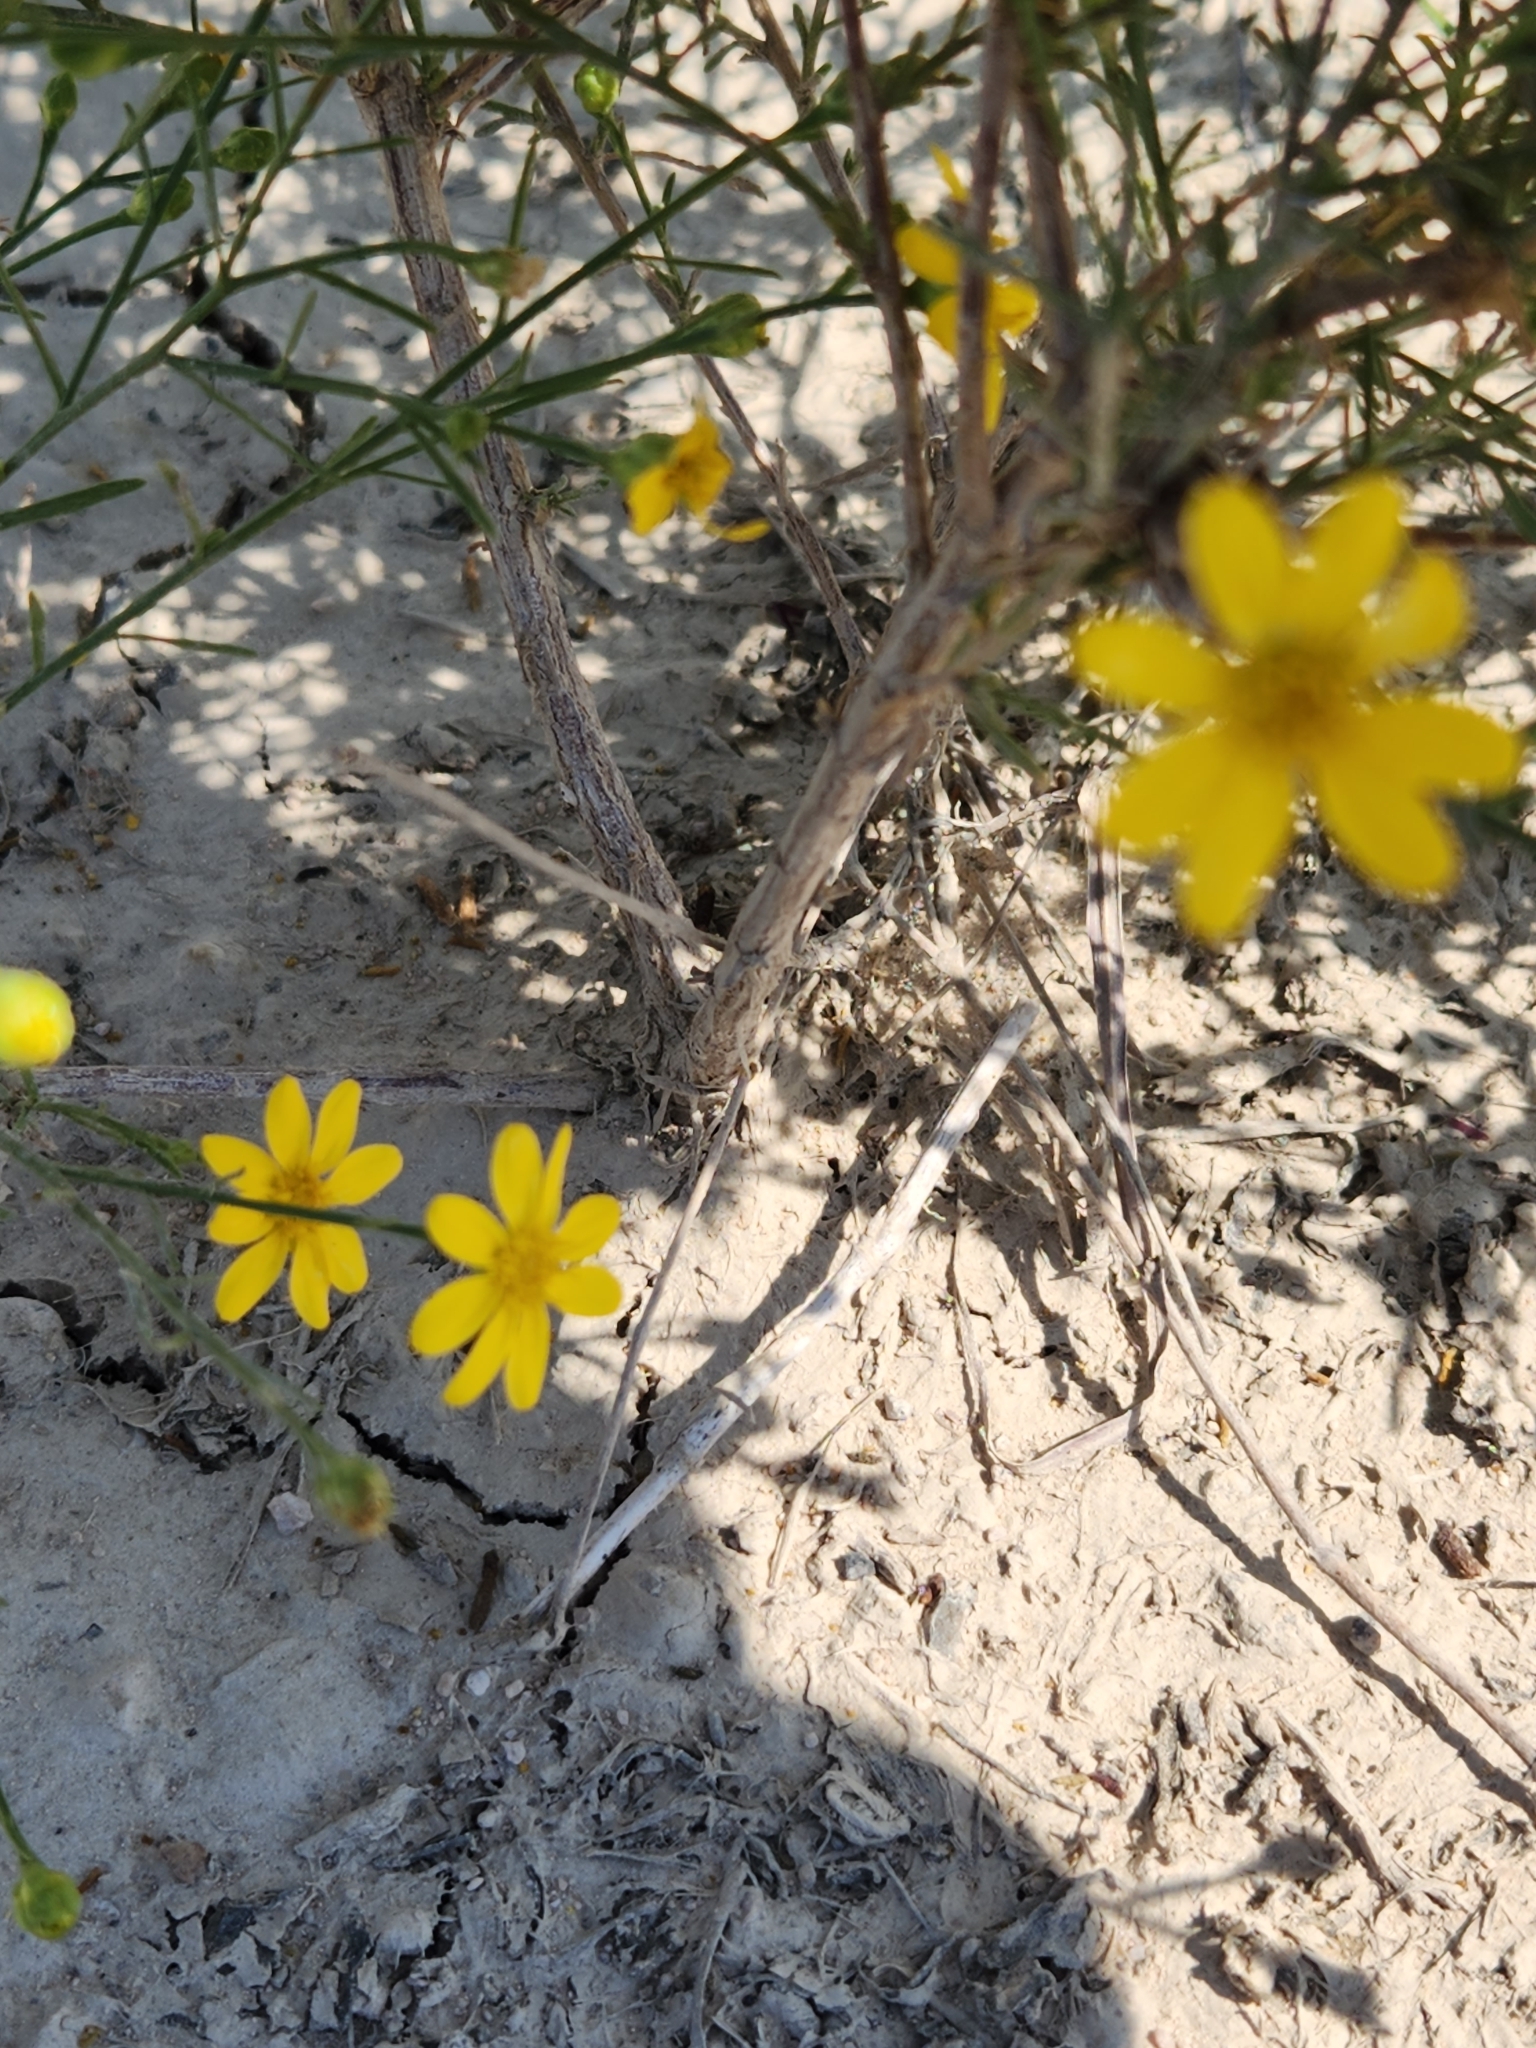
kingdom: Plantae
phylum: Tracheophyta
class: Magnoliopsida
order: Asterales
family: Asteraceae
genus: Amphiachyris
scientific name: Amphiachyris amoenum
